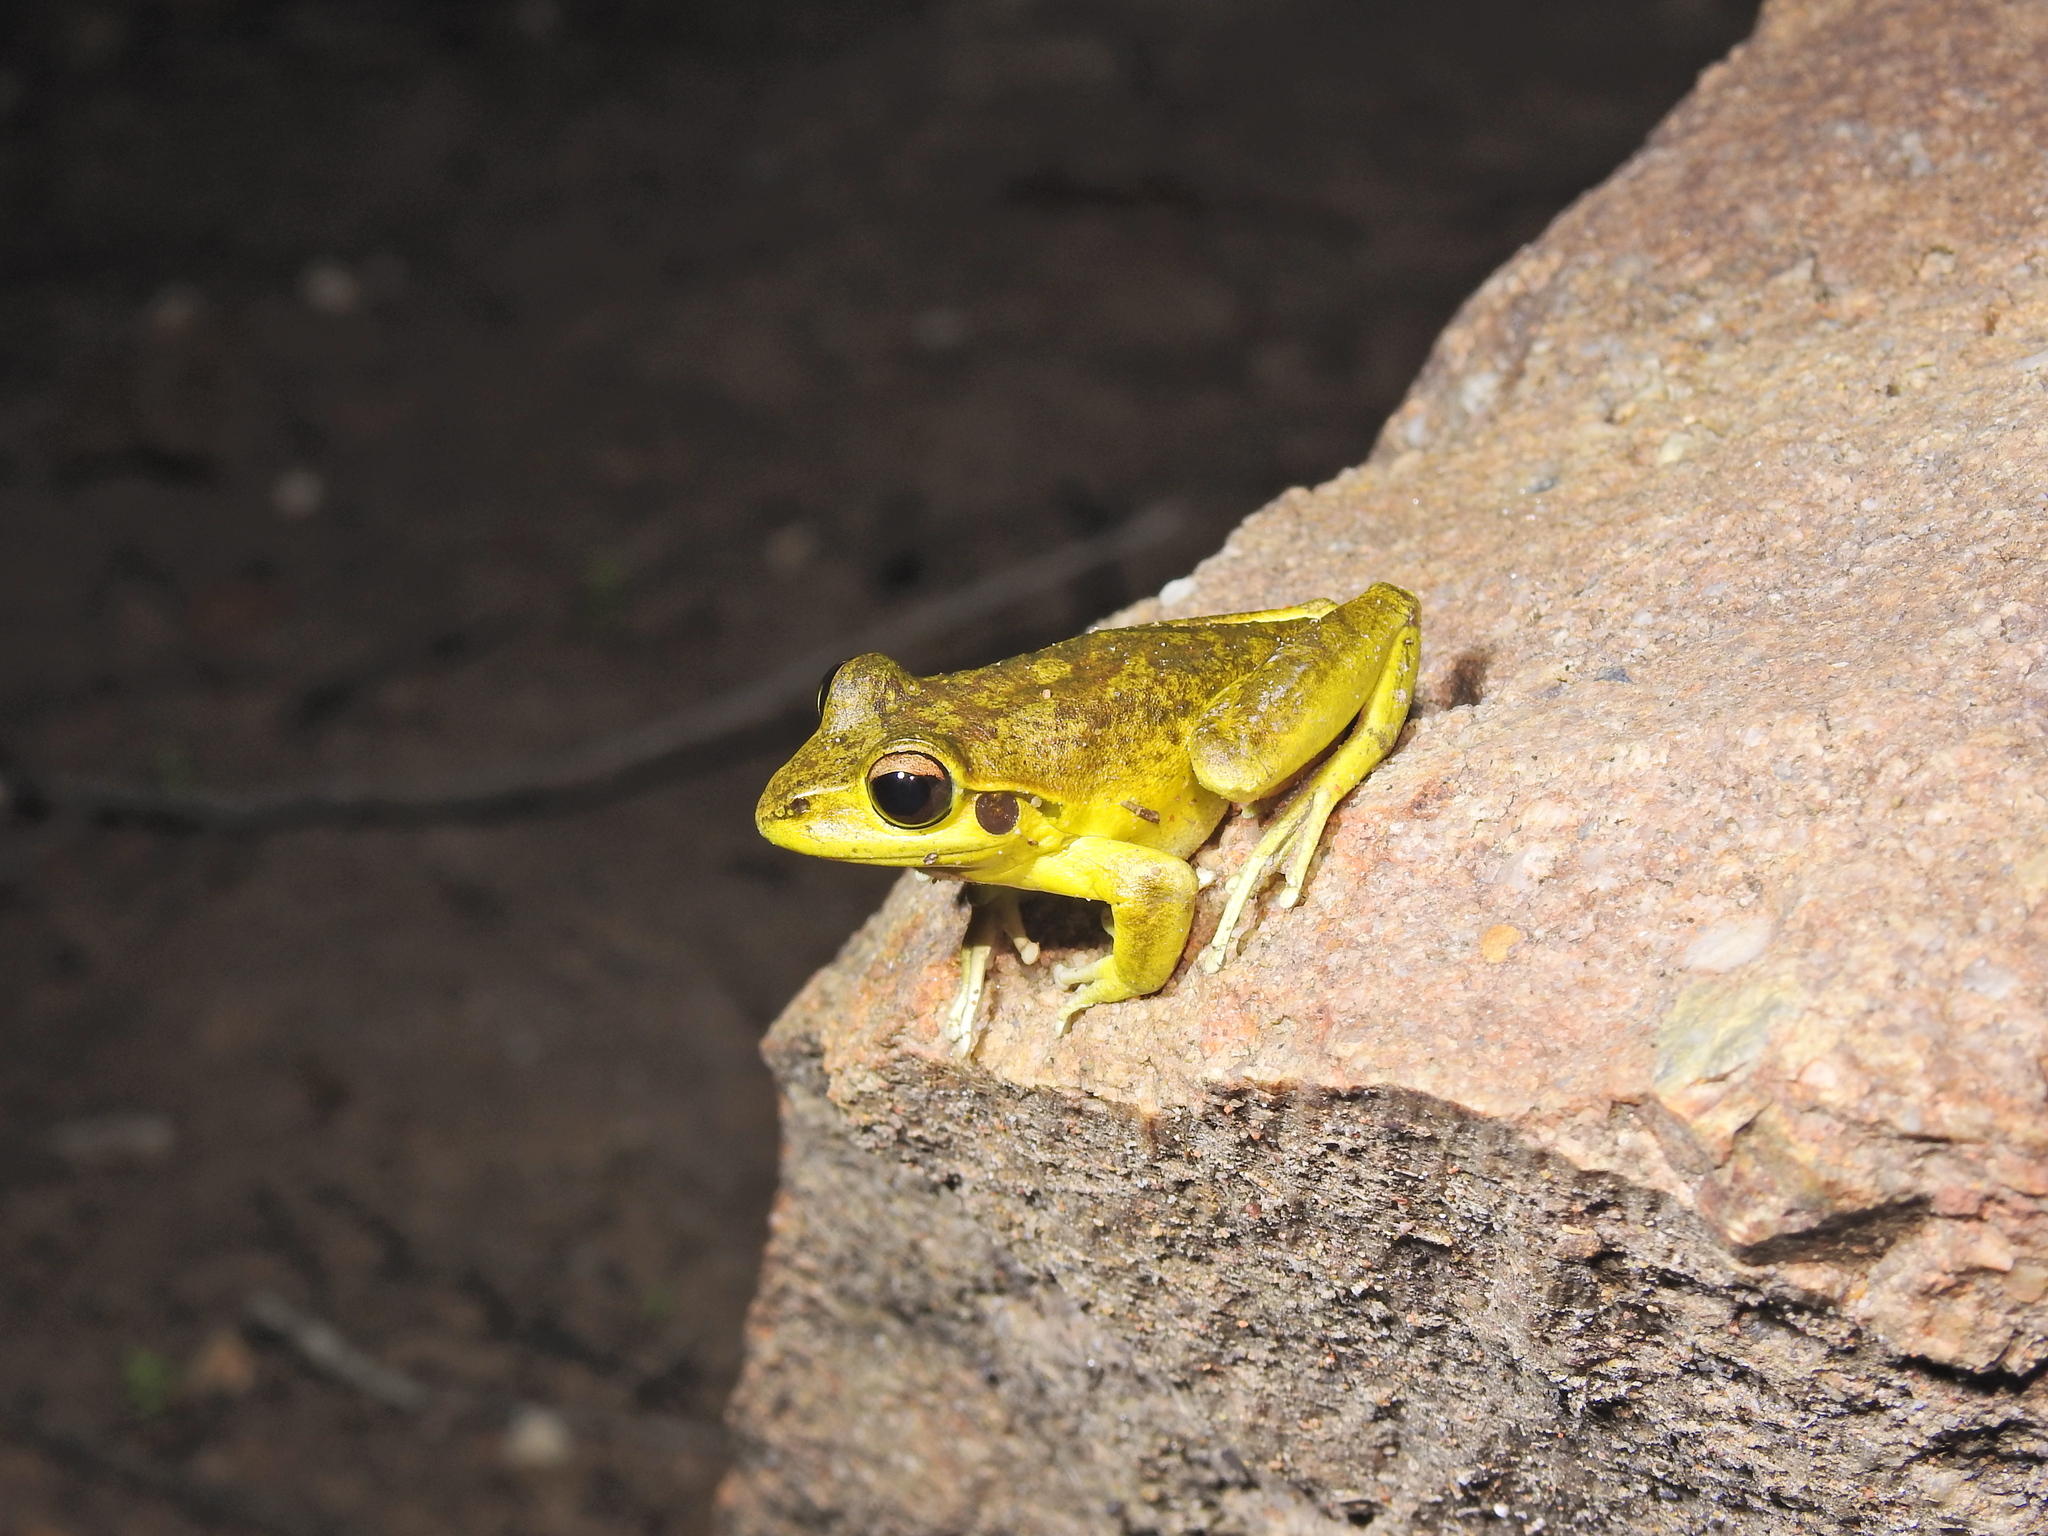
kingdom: Animalia
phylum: Chordata
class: Amphibia
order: Anura
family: Pelodryadidae
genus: Ranoidea
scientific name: Ranoidea wilcoxii
